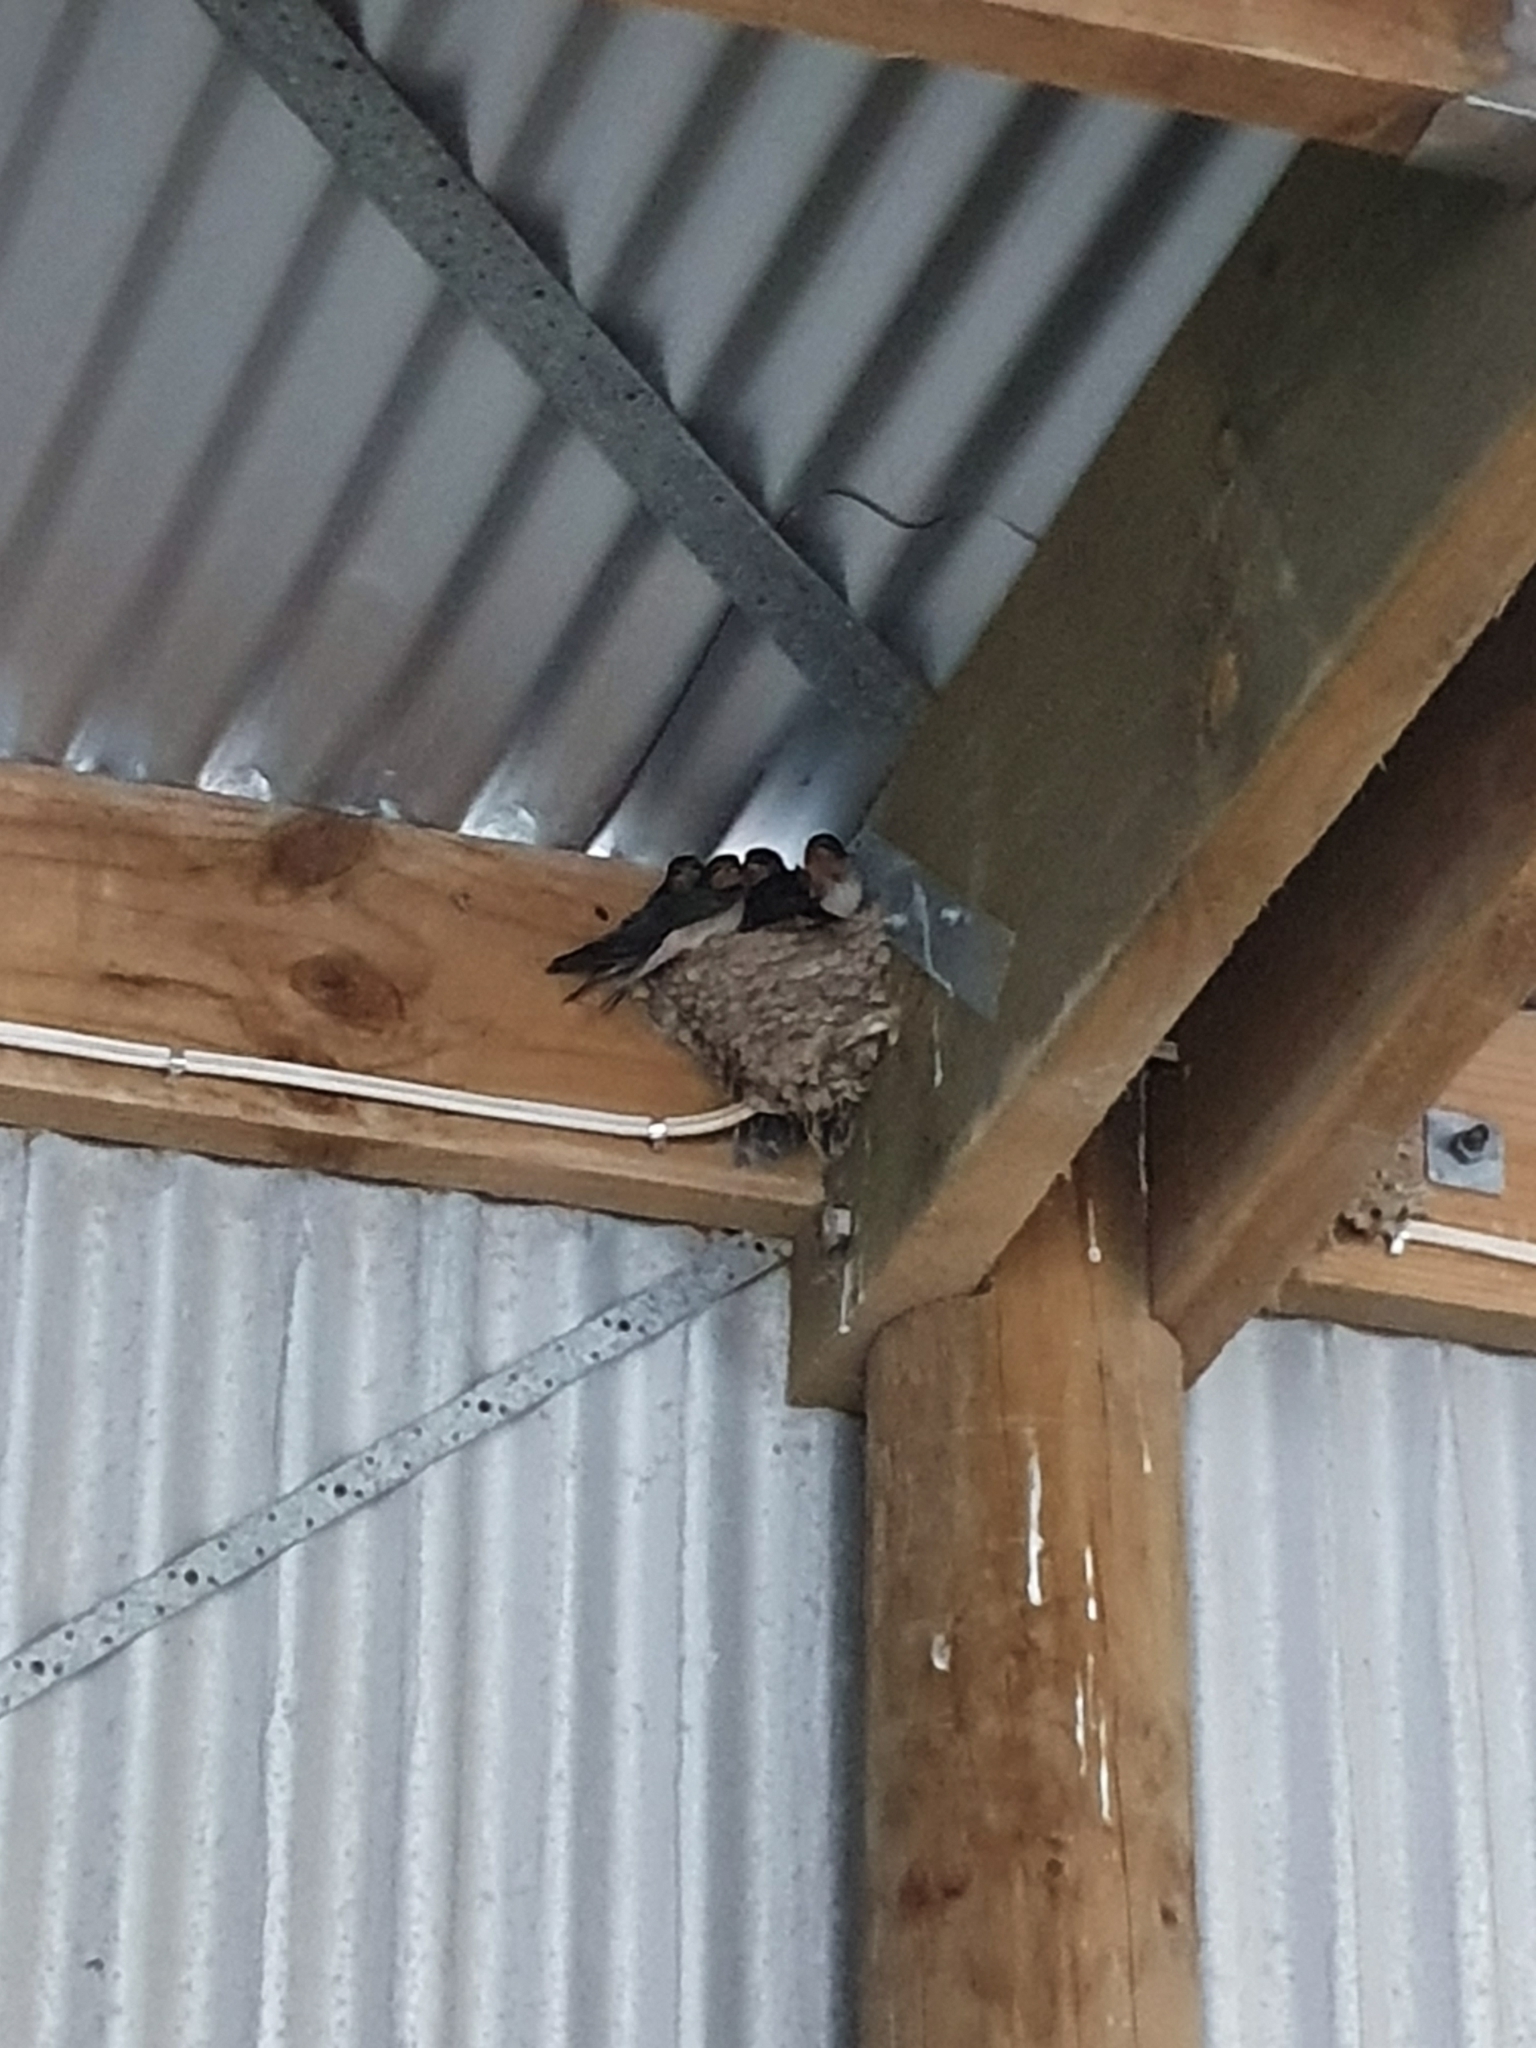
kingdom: Animalia
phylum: Chordata
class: Aves
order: Passeriformes
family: Hirundinidae
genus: Hirundo
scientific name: Hirundo neoxena
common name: Welcome swallow
